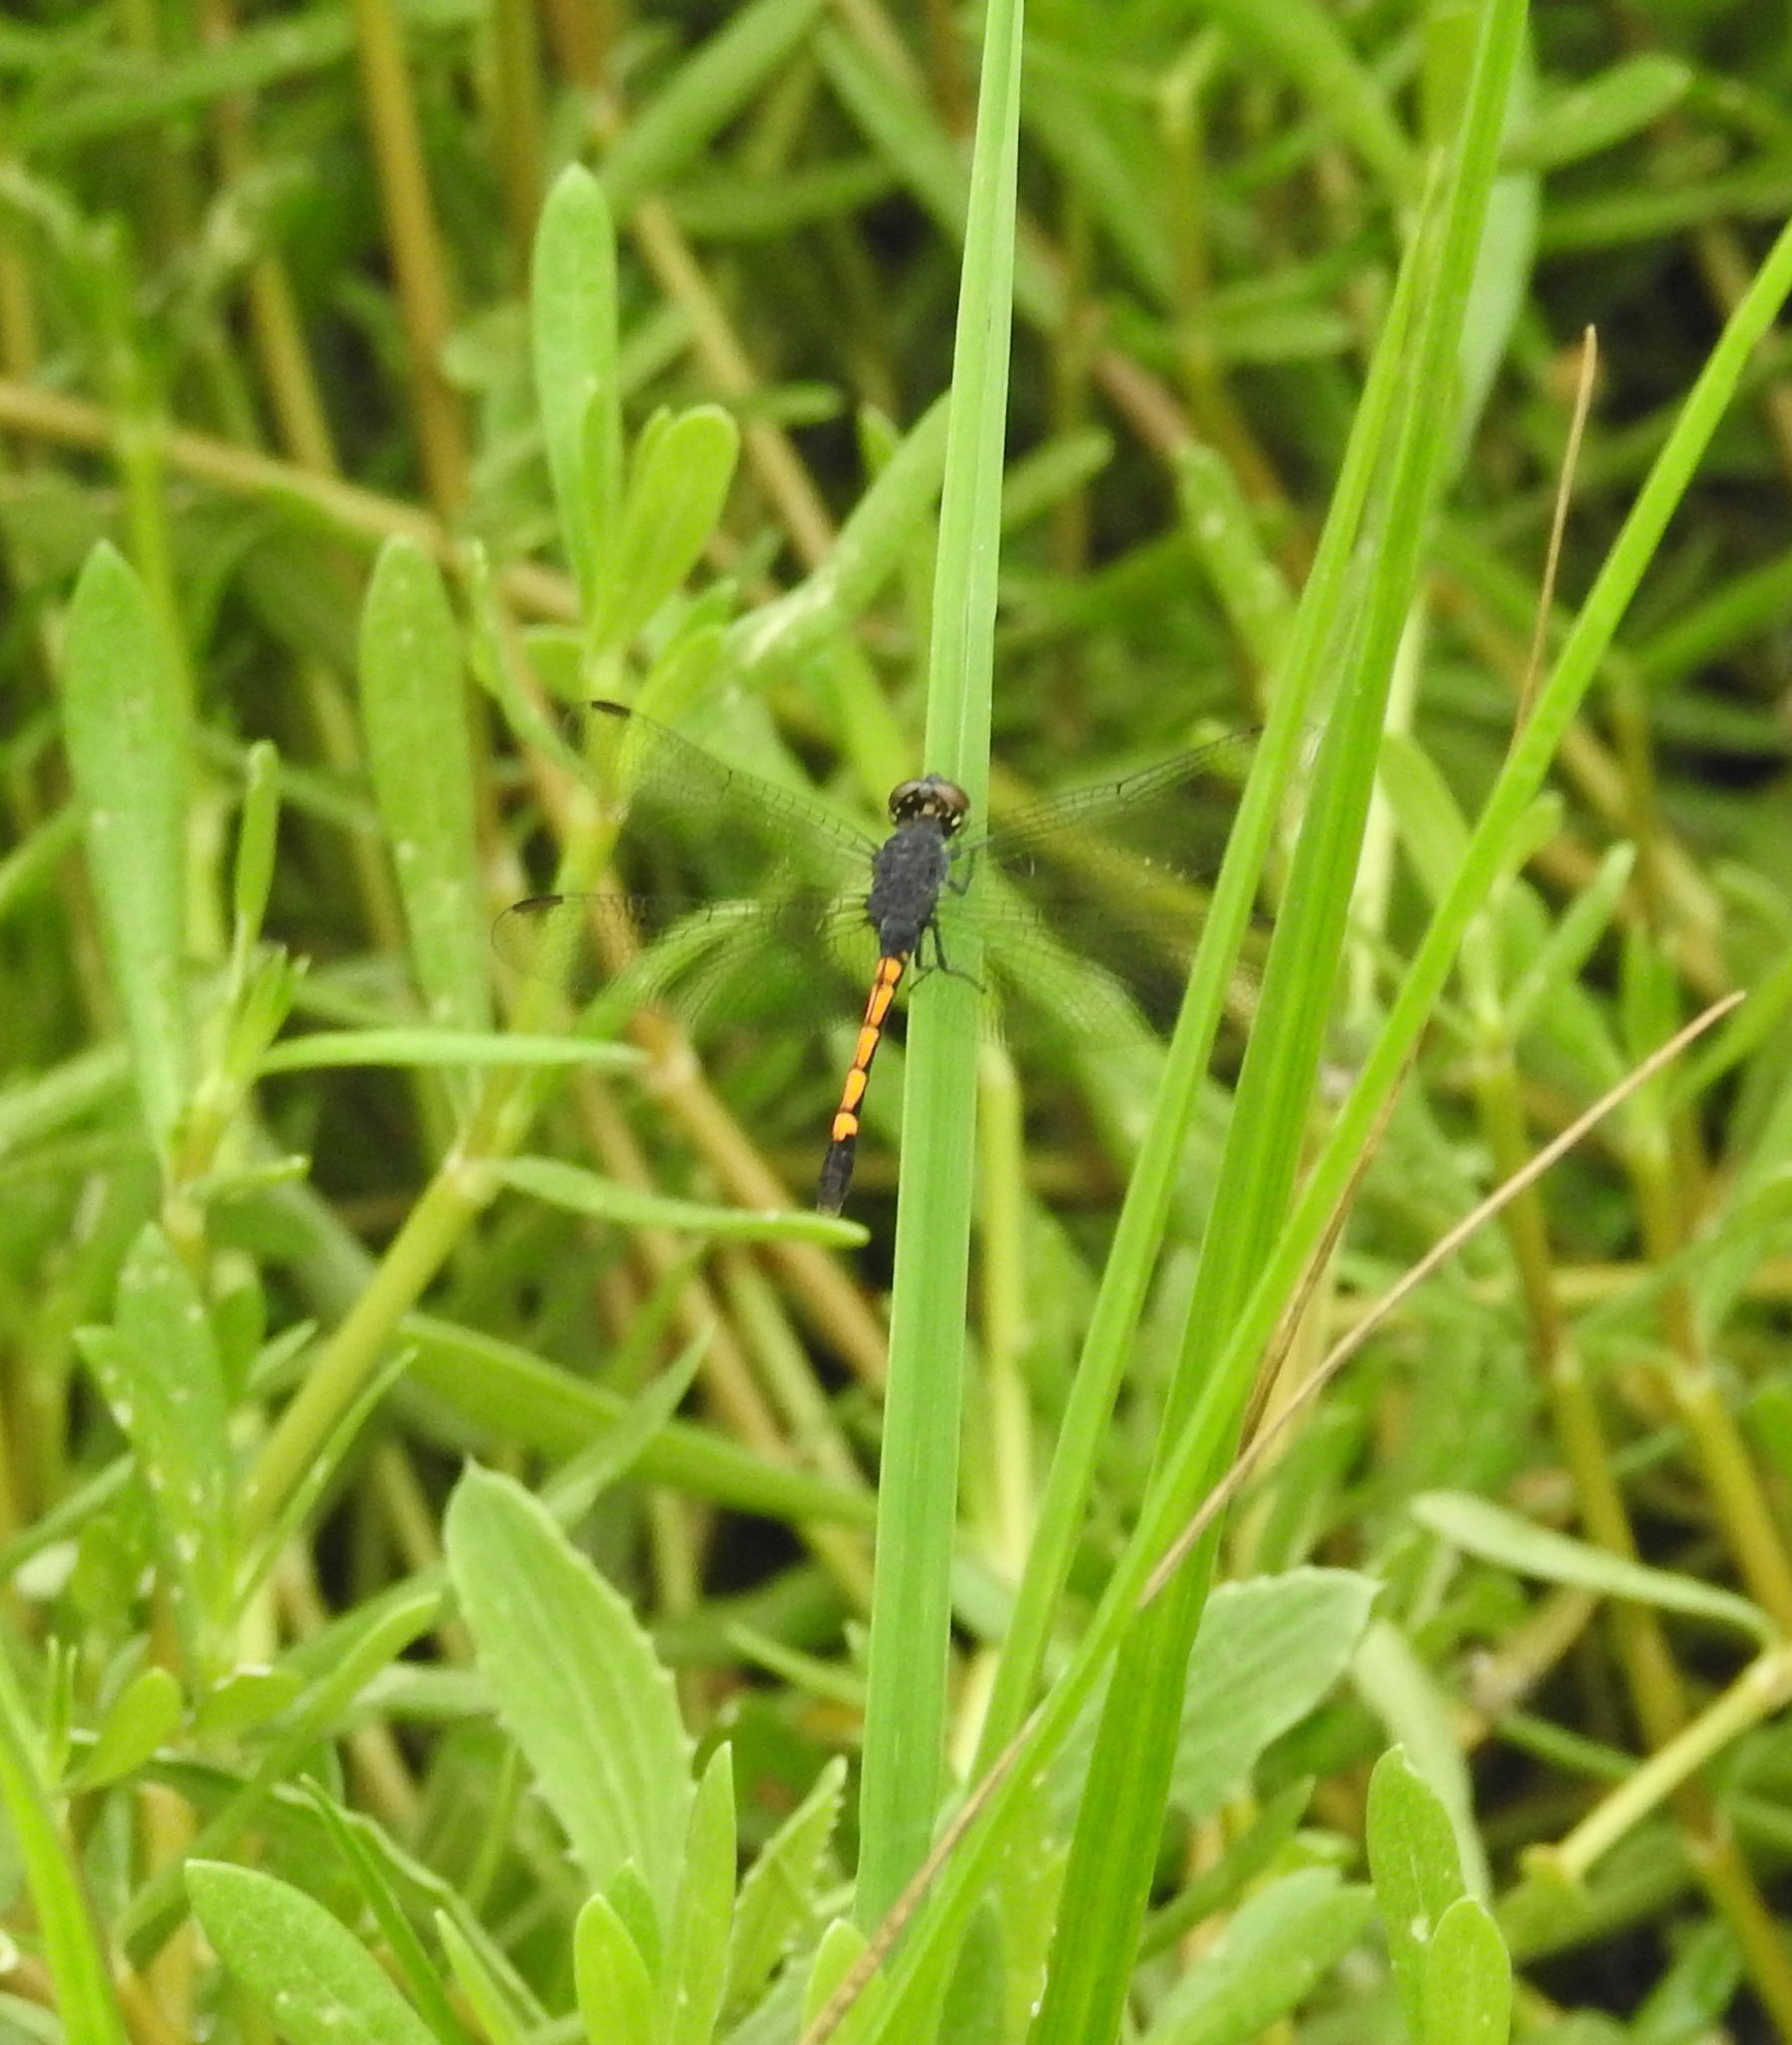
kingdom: Animalia
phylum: Arthropoda
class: Insecta
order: Odonata
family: Libellulidae
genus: Erythrodiplax
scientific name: Erythrodiplax berenice
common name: Seaside dragonlet
